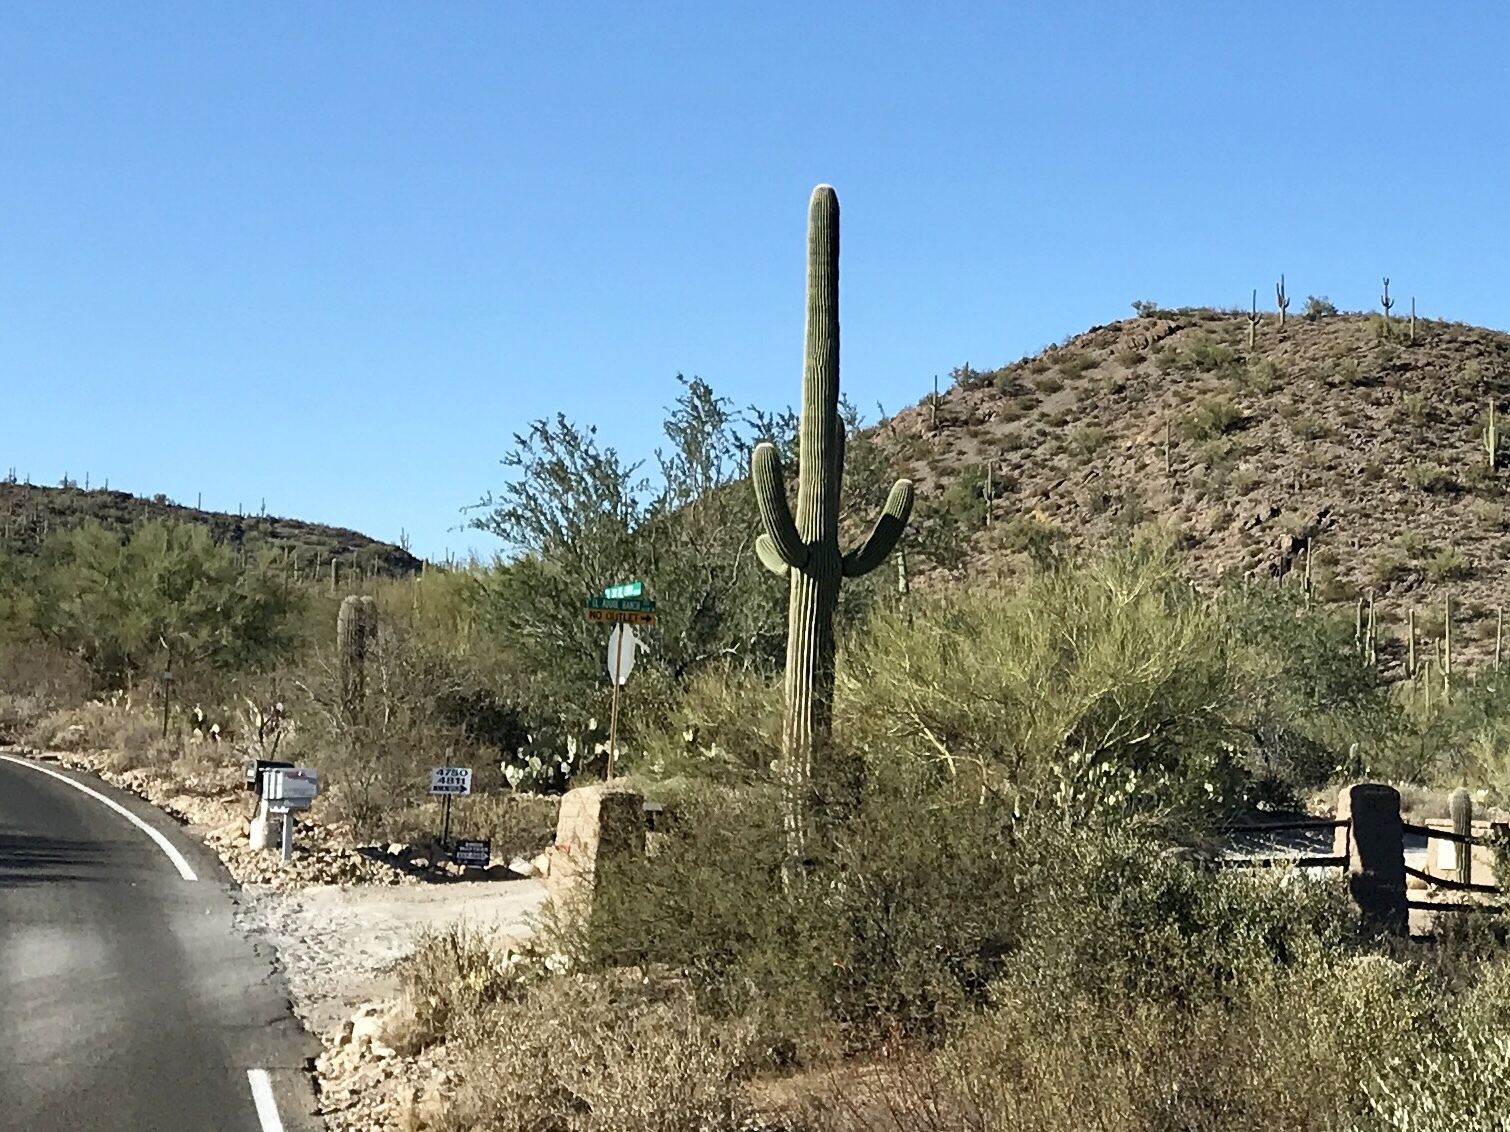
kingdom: Plantae
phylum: Tracheophyta
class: Magnoliopsida
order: Caryophyllales
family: Cactaceae
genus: Carnegiea
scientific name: Carnegiea gigantea
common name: Saguaro
